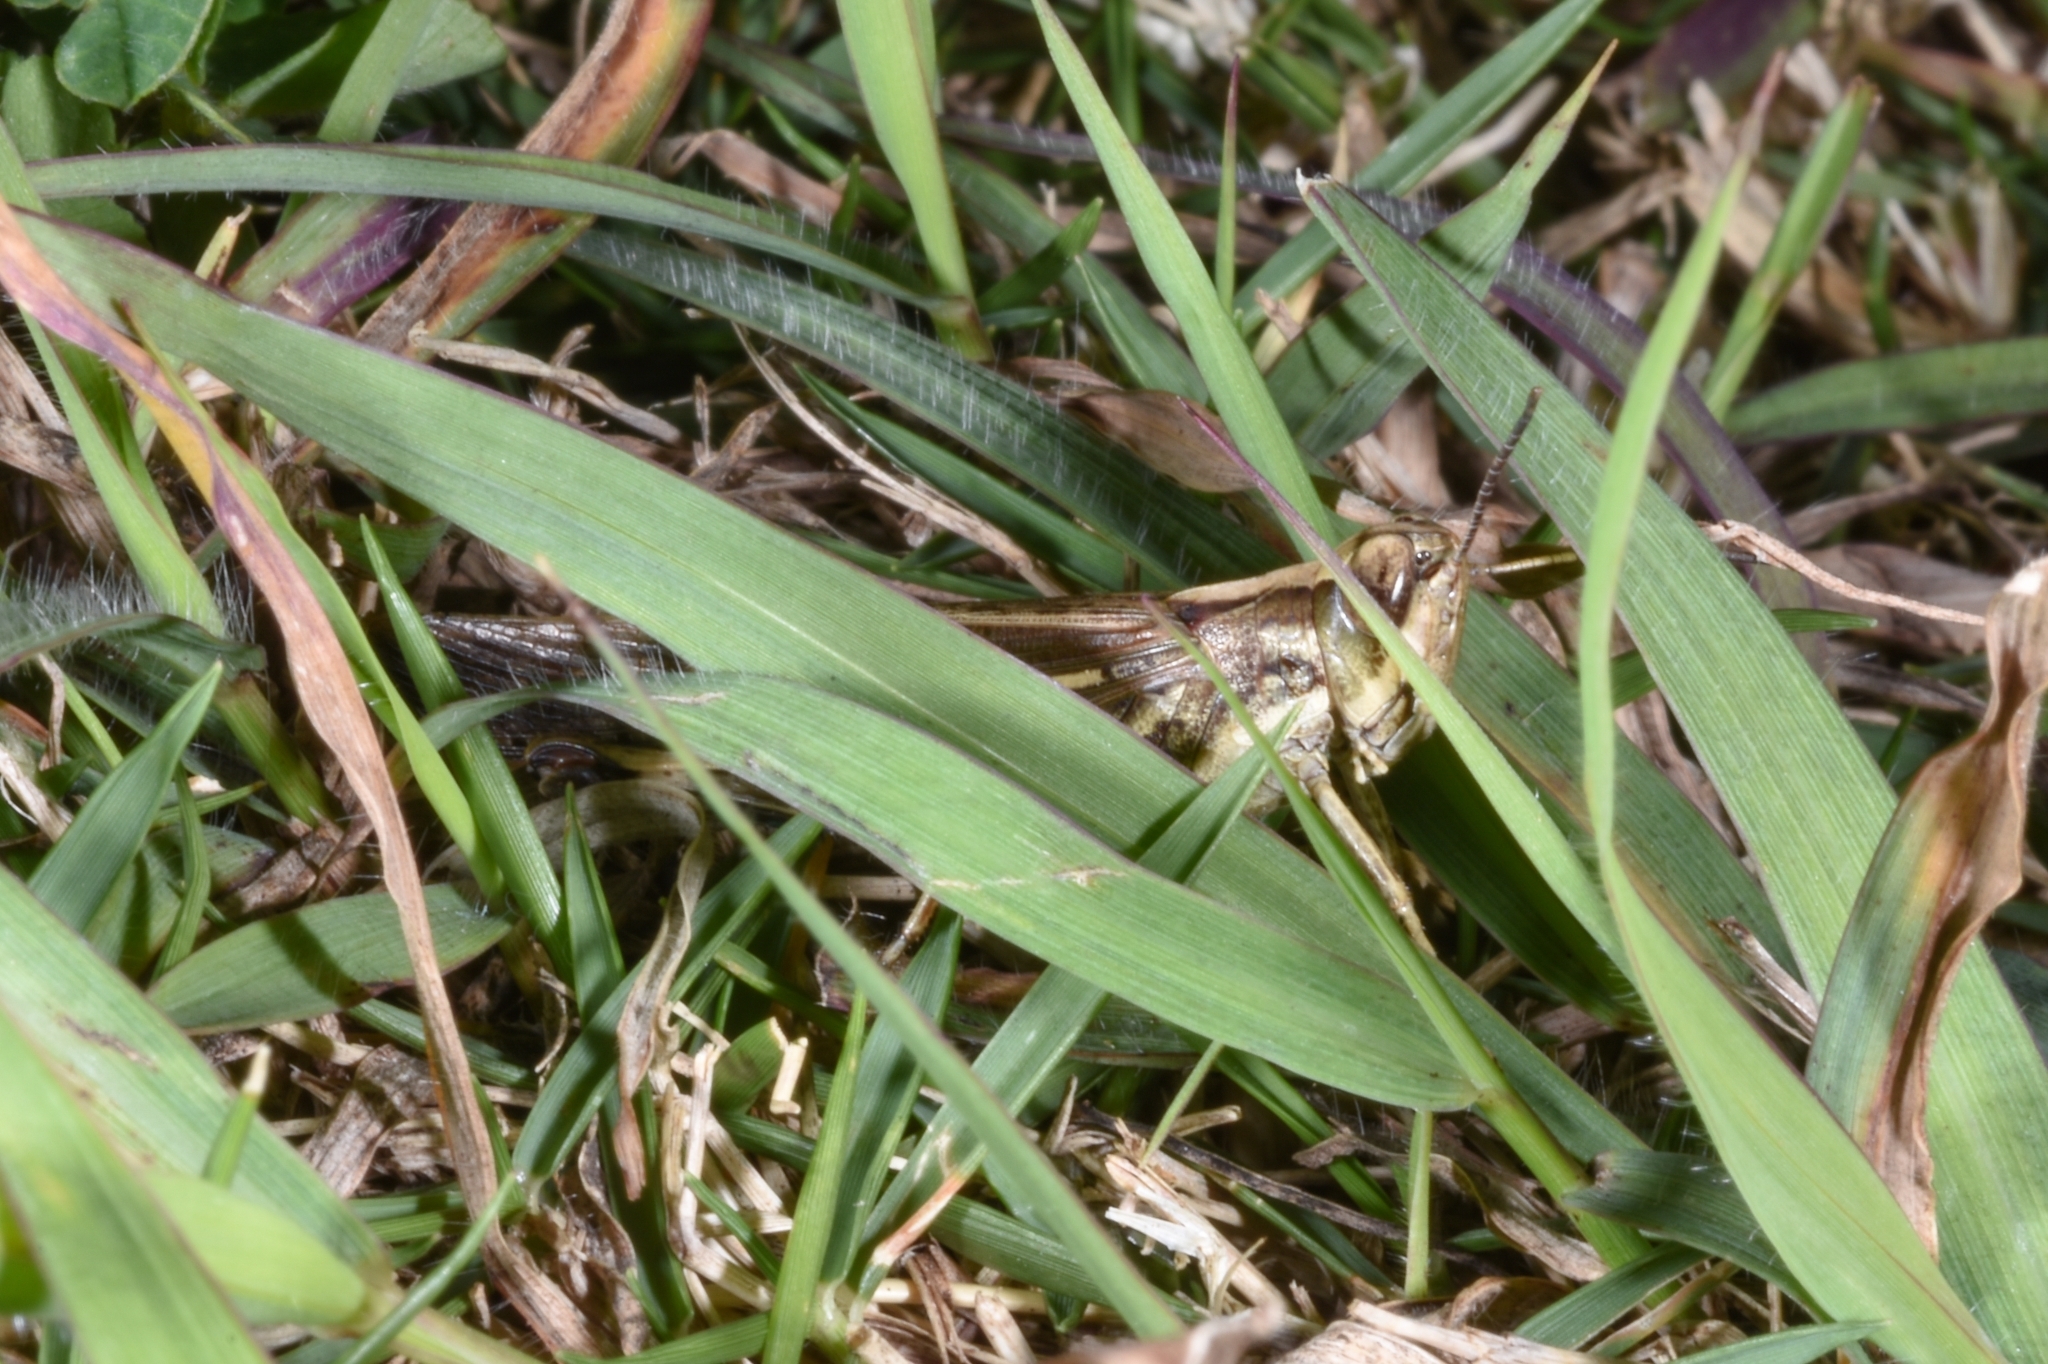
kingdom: Animalia
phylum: Arthropoda
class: Insecta
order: Orthoptera
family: Acrididae
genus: Aiolopus
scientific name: Aiolopus thalassinus
